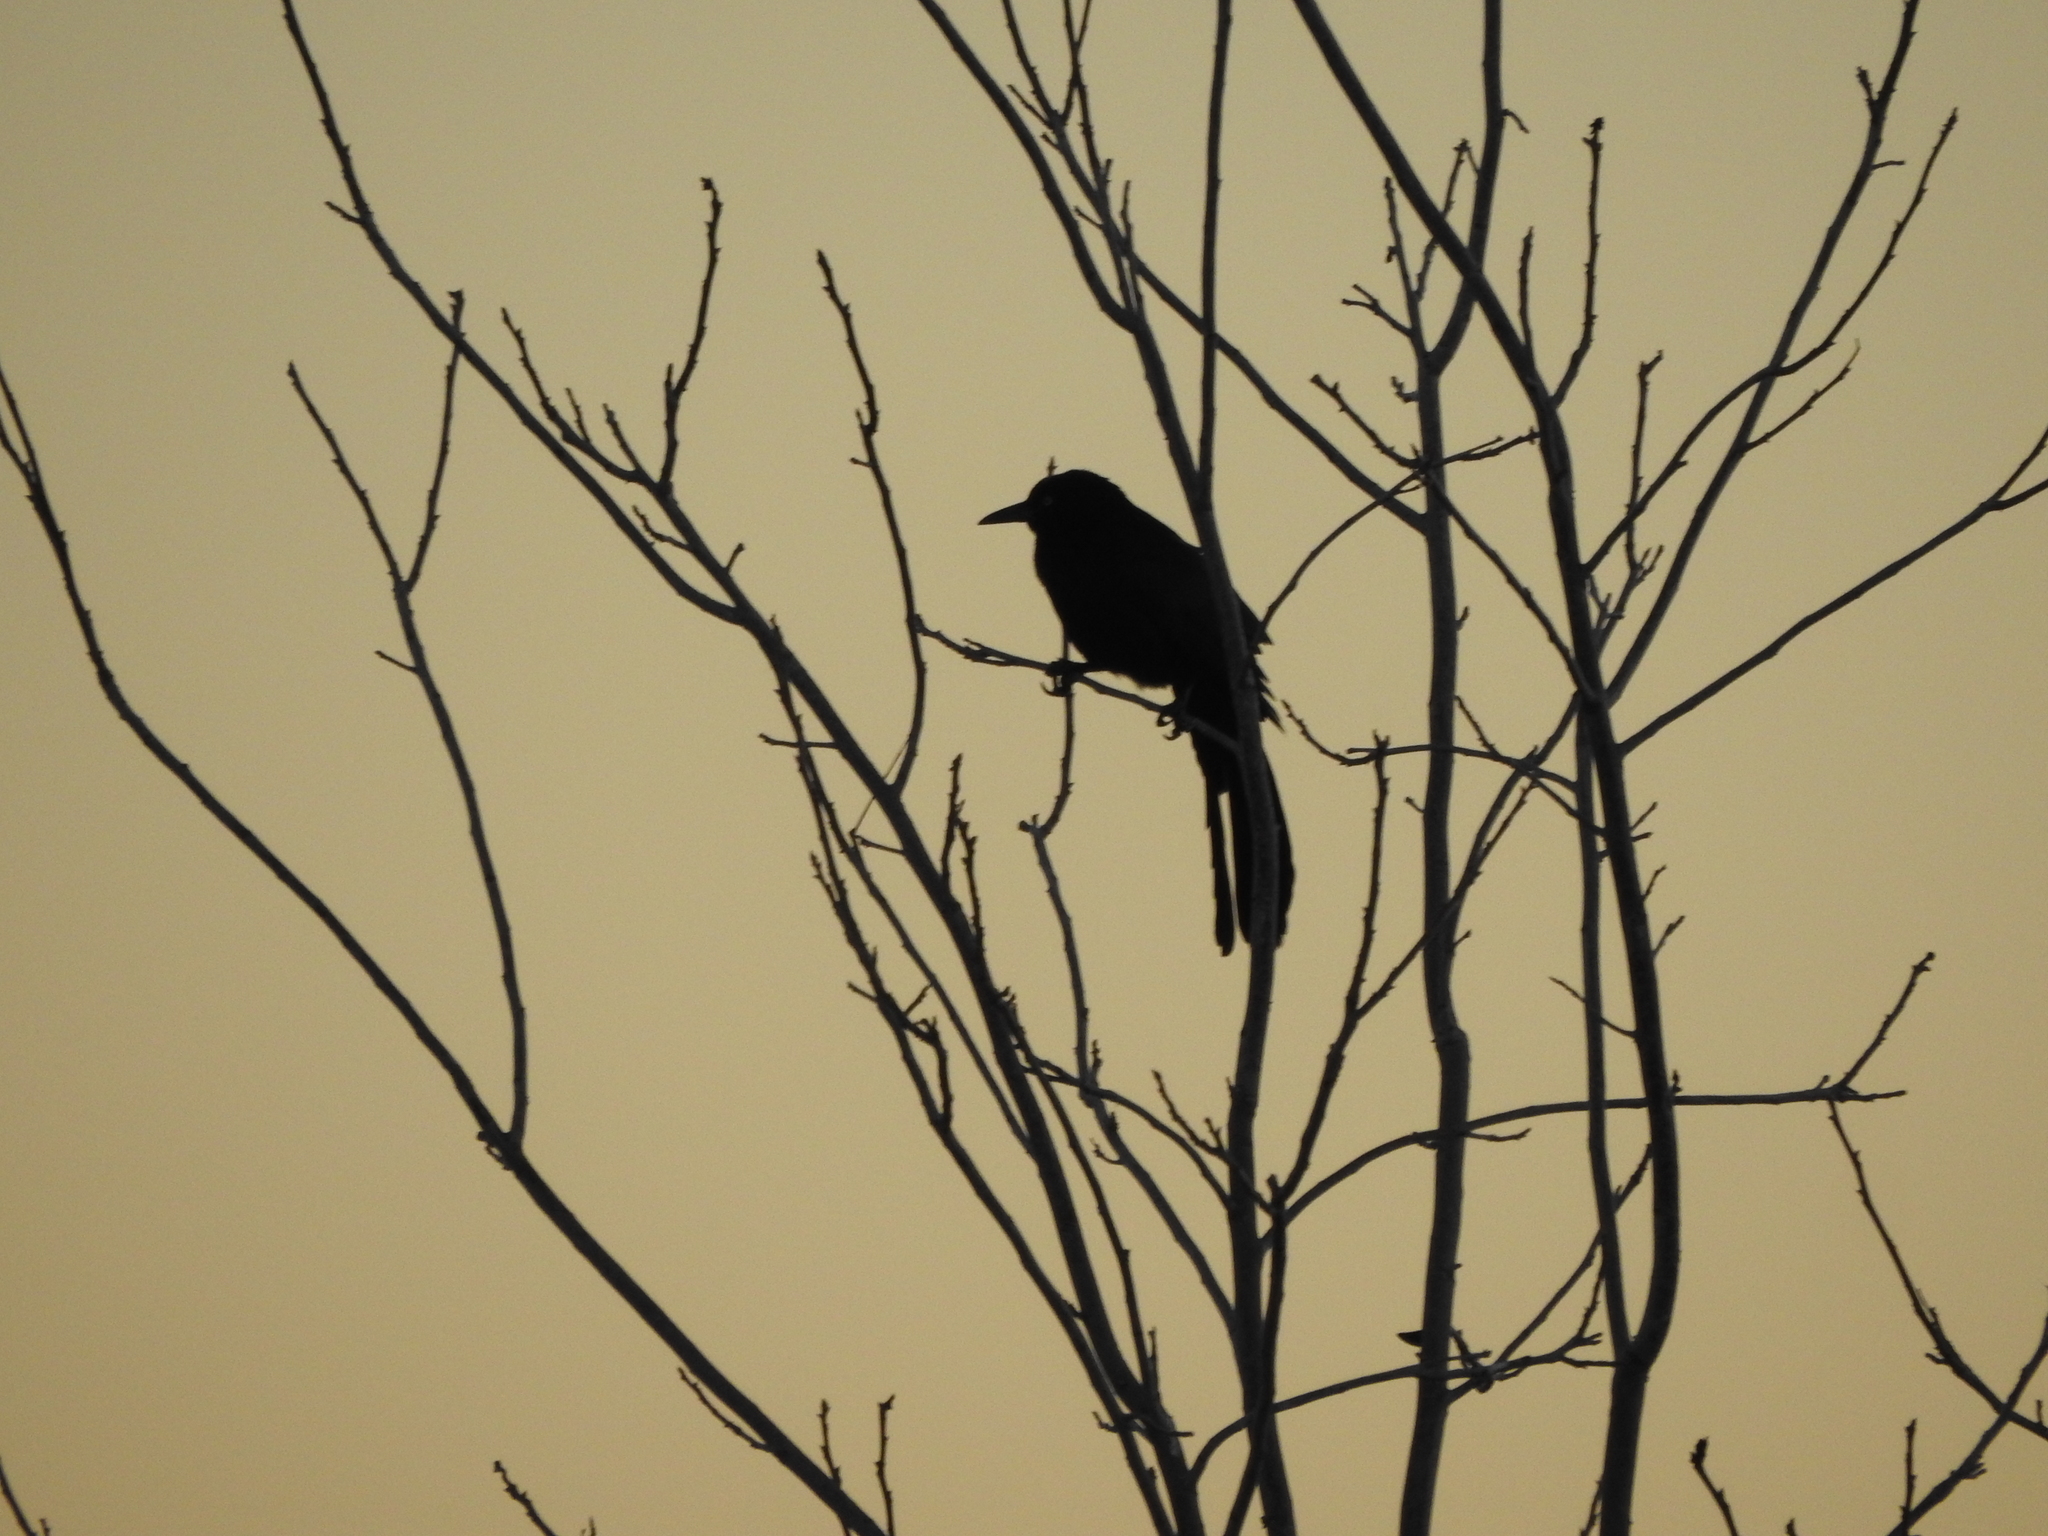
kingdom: Animalia
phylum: Chordata
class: Aves
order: Passeriformes
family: Icteridae
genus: Quiscalus
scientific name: Quiscalus mexicanus
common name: Great-tailed grackle
